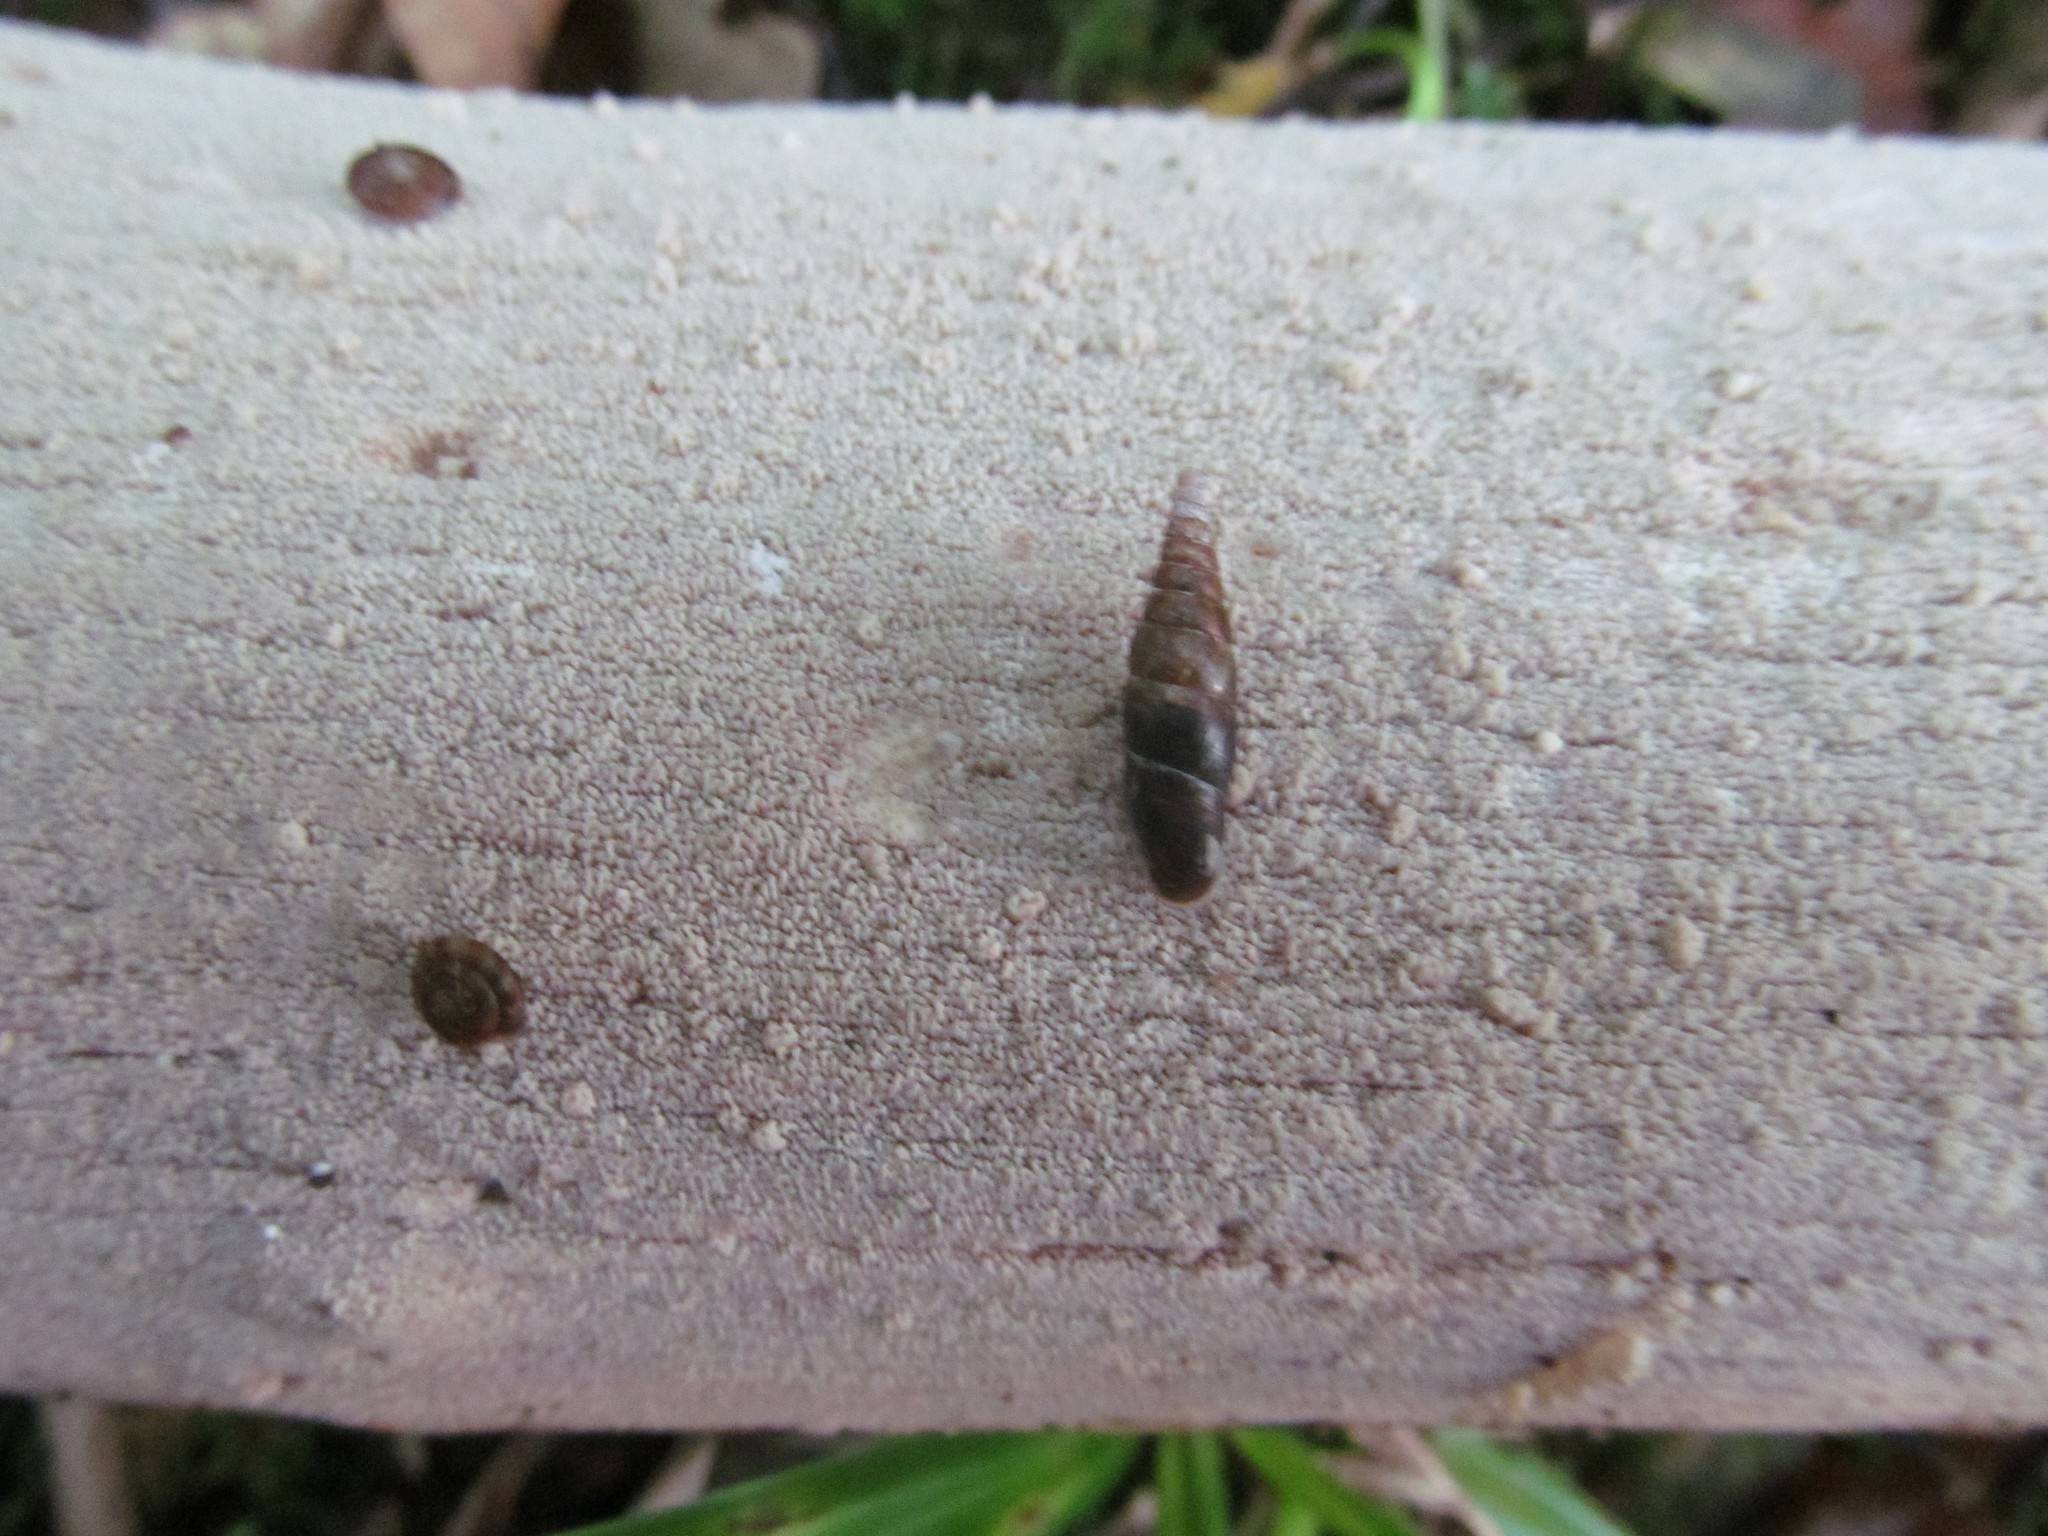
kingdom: Animalia
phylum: Mollusca
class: Gastropoda
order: Stylommatophora
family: Discidae
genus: Discus
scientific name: Discus rotundatus
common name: Rounded snail
